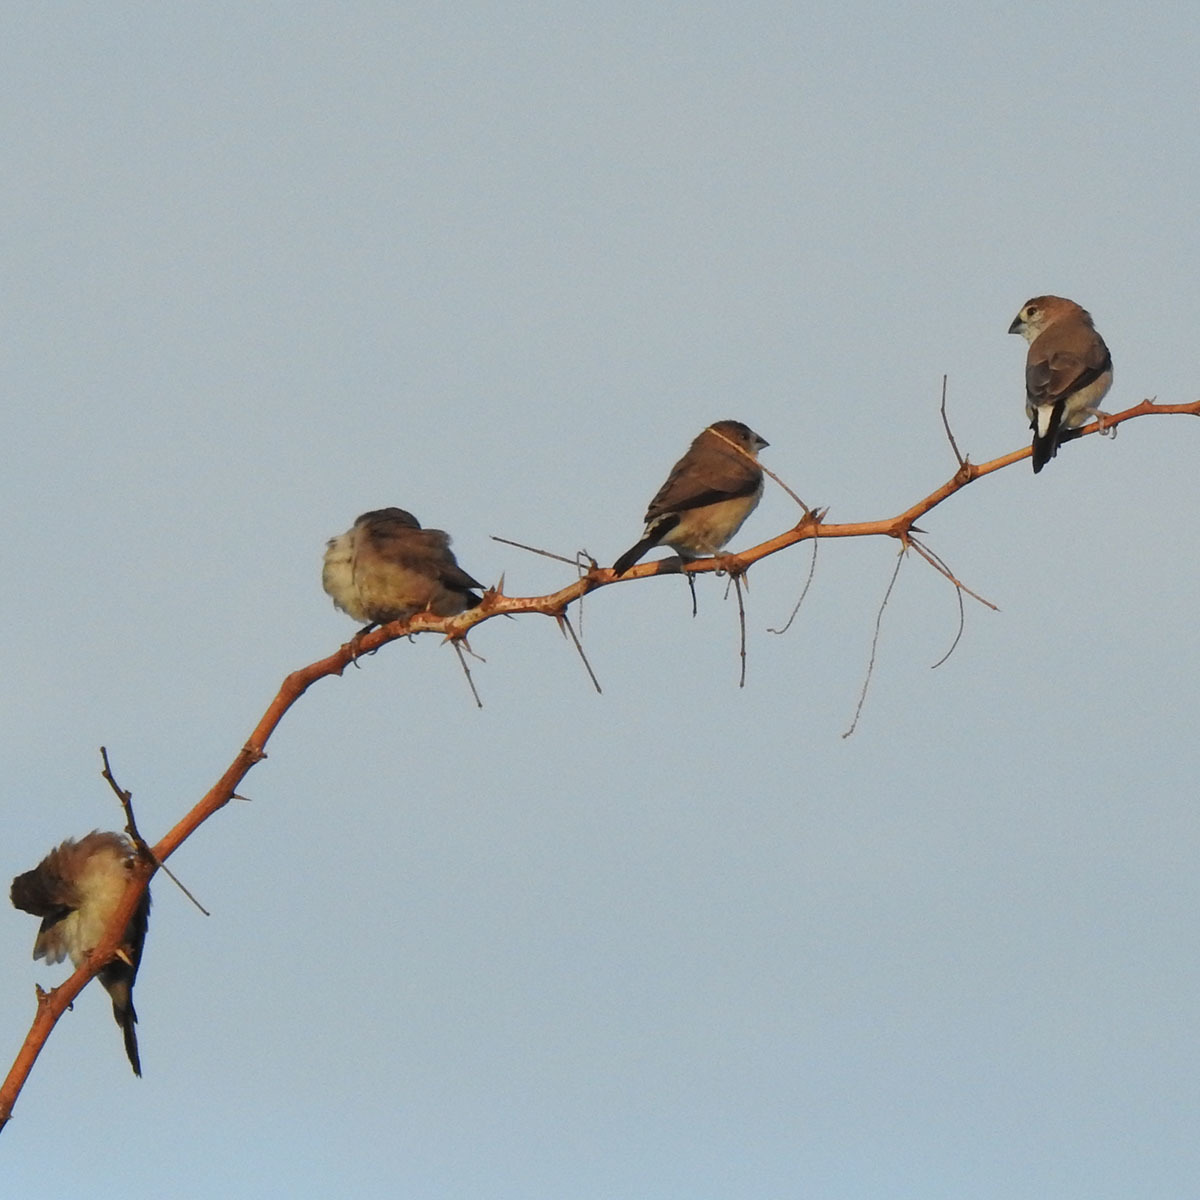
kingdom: Animalia
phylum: Chordata
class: Aves
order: Passeriformes
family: Estrildidae
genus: Euodice
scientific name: Euodice malabarica
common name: Indian silverbill
